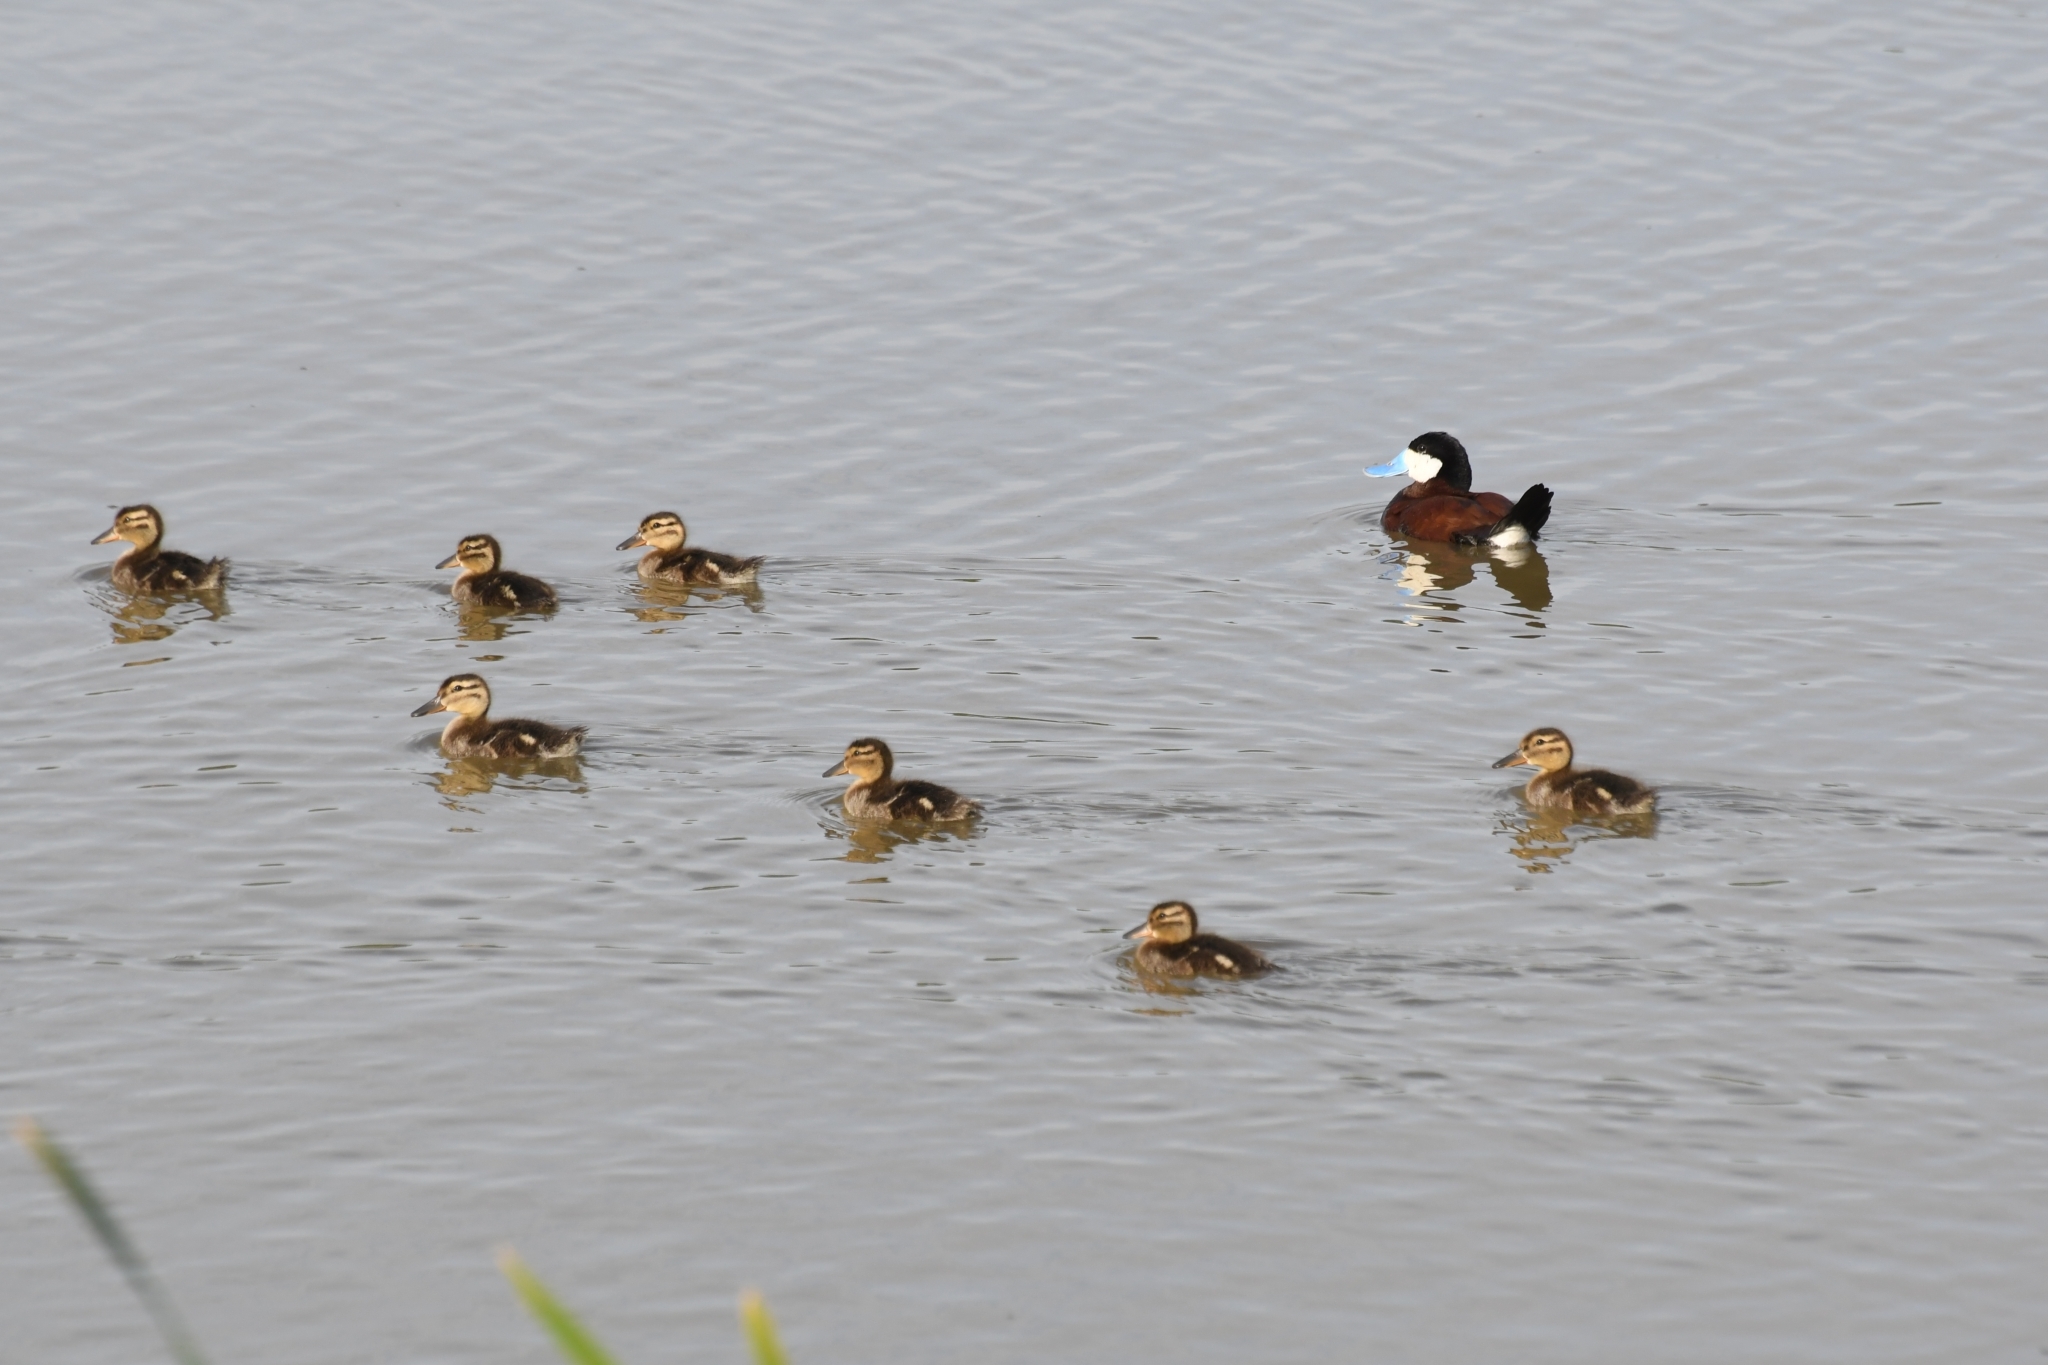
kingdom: Animalia
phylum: Chordata
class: Aves
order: Anseriformes
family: Anatidae
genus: Oxyura
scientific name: Oxyura jamaicensis
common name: Ruddy duck
